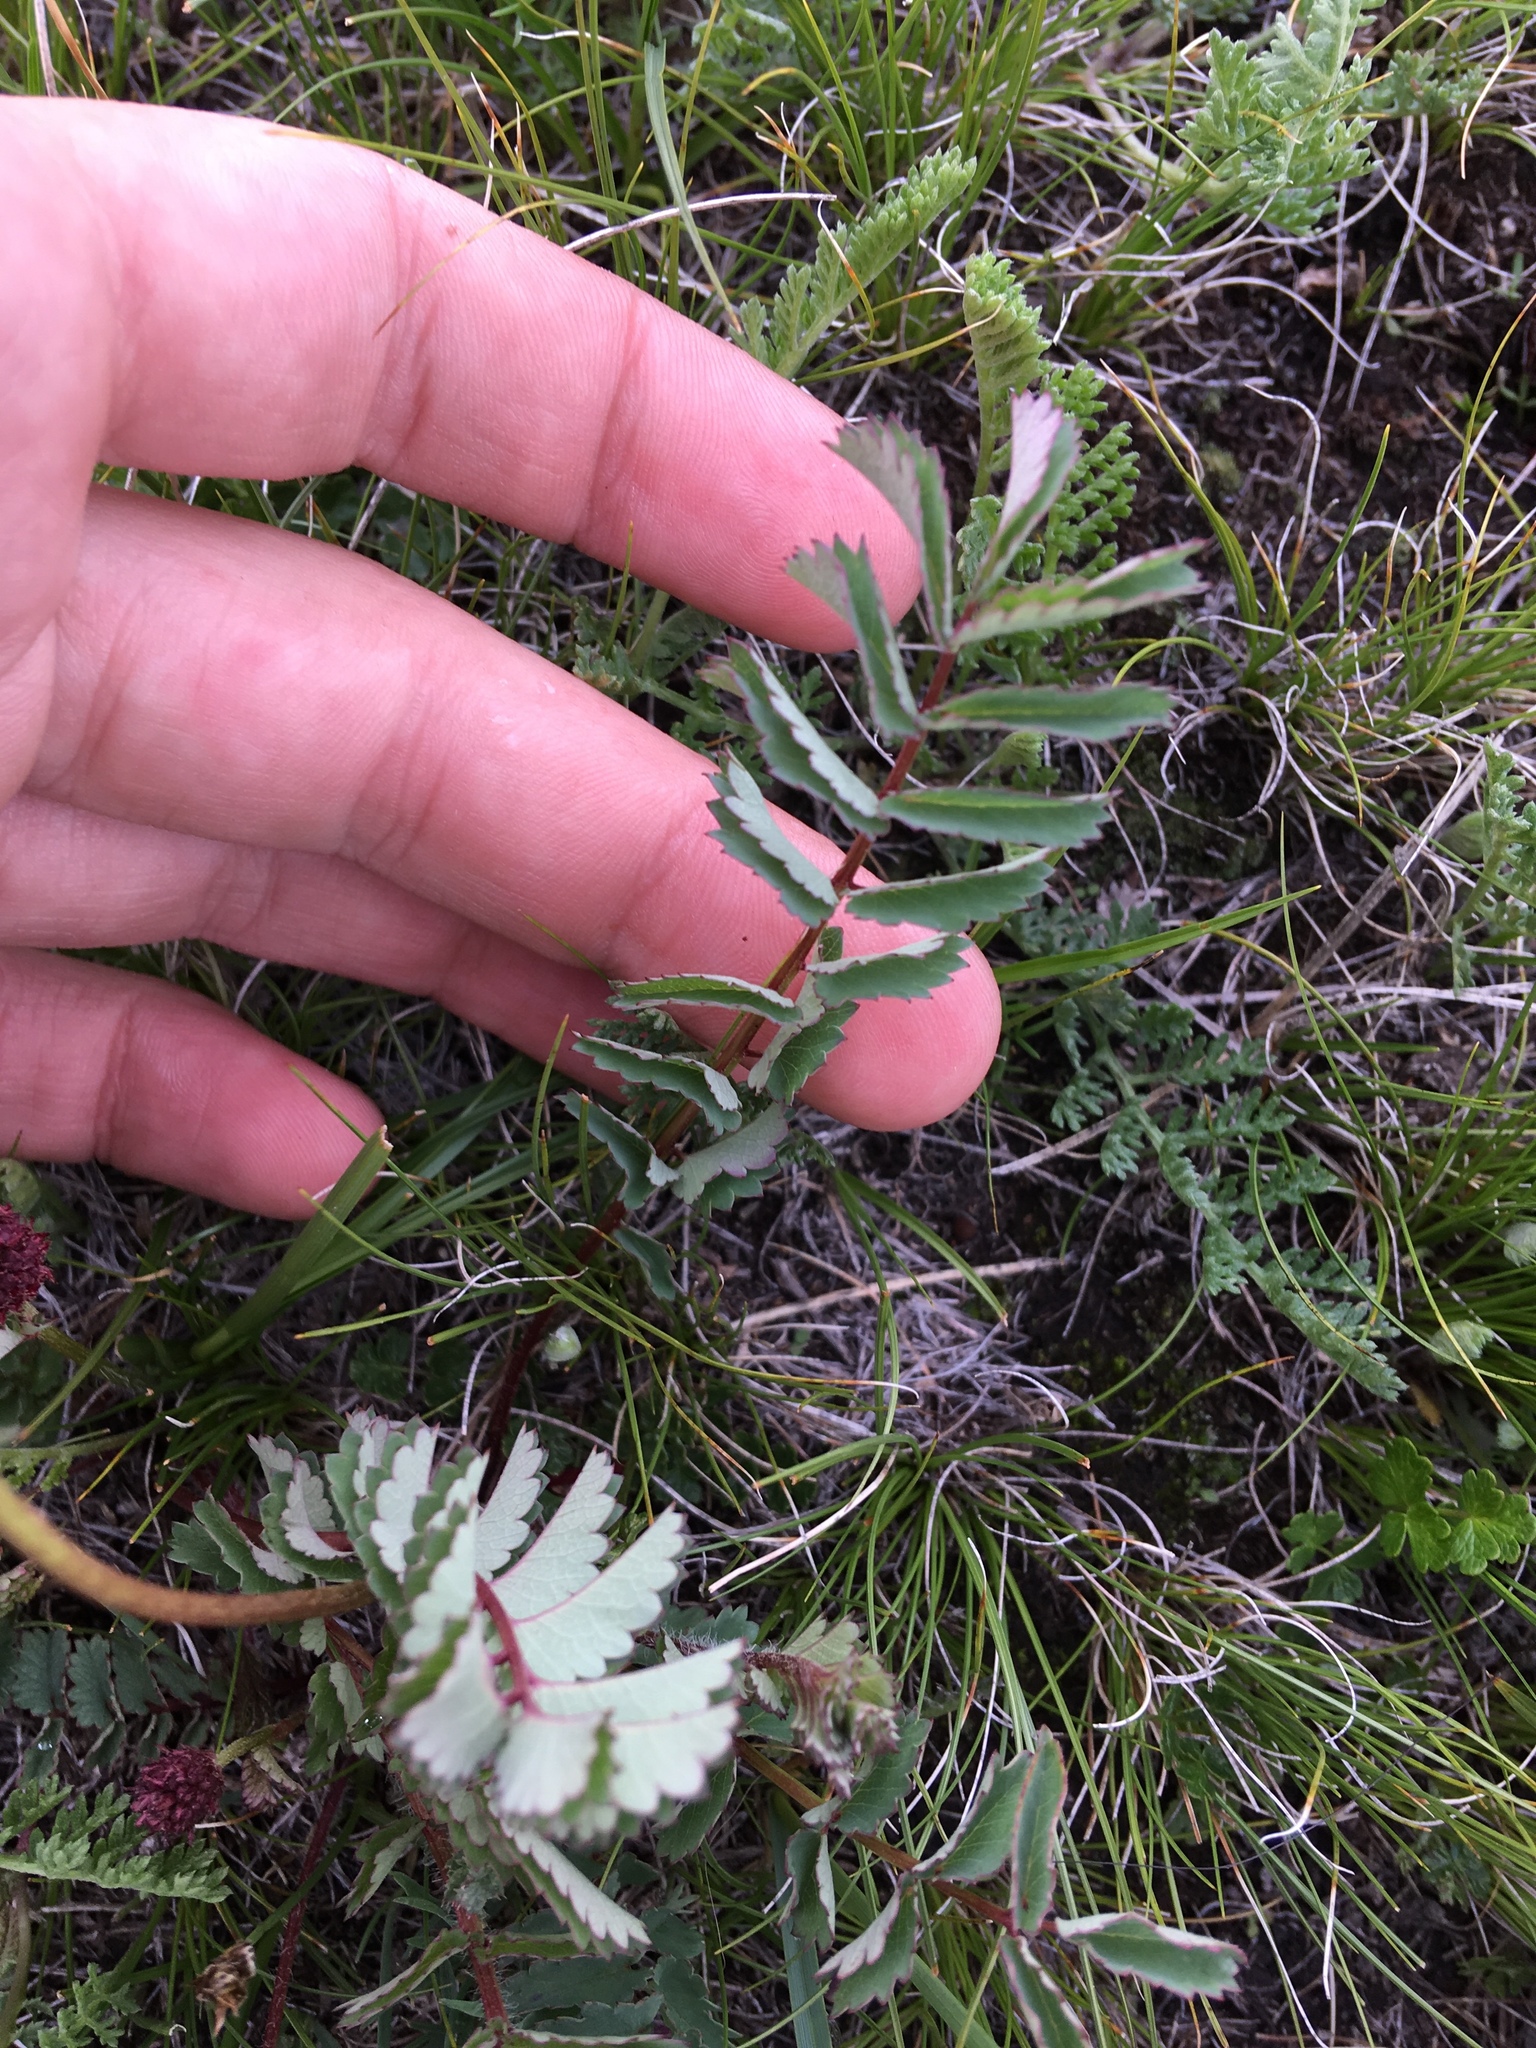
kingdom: Plantae
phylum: Tracheophyta
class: Magnoliopsida
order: Rosales
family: Rosaceae
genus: Sanguisorba
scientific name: Sanguisorba officinalis
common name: Great burnet
